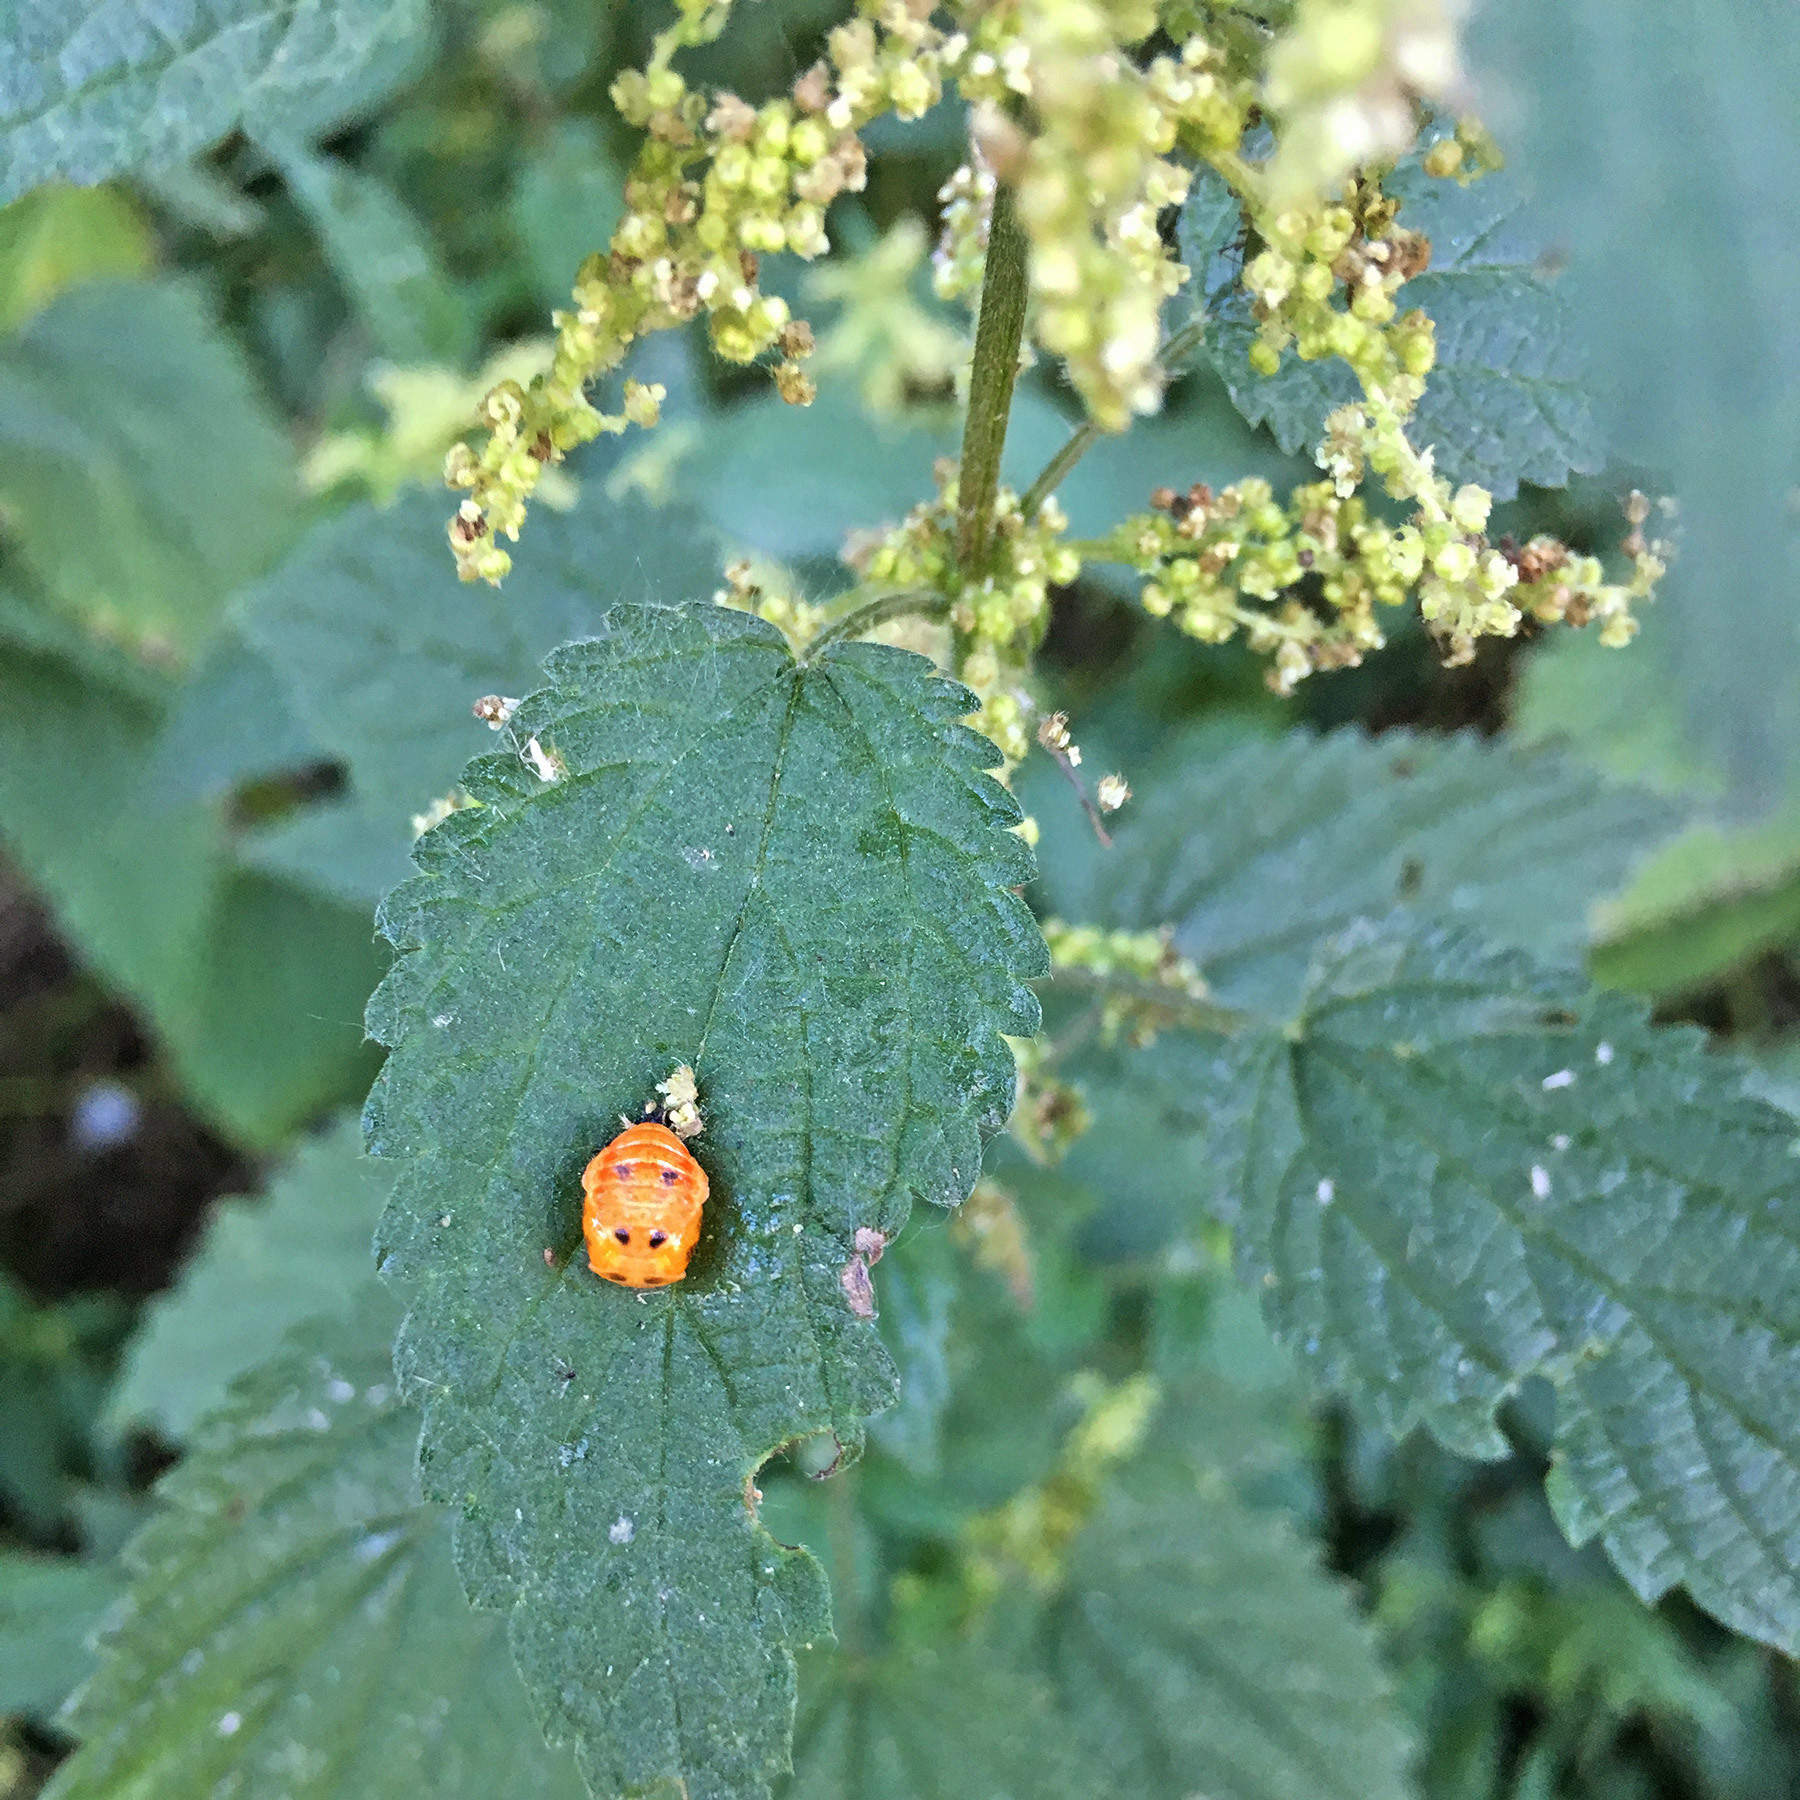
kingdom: Animalia
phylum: Arthropoda
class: Insecta
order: Coleoptera
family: Coccinellidae
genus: Harmonia
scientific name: Harmonia axyridis
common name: Harlequin ladybird
